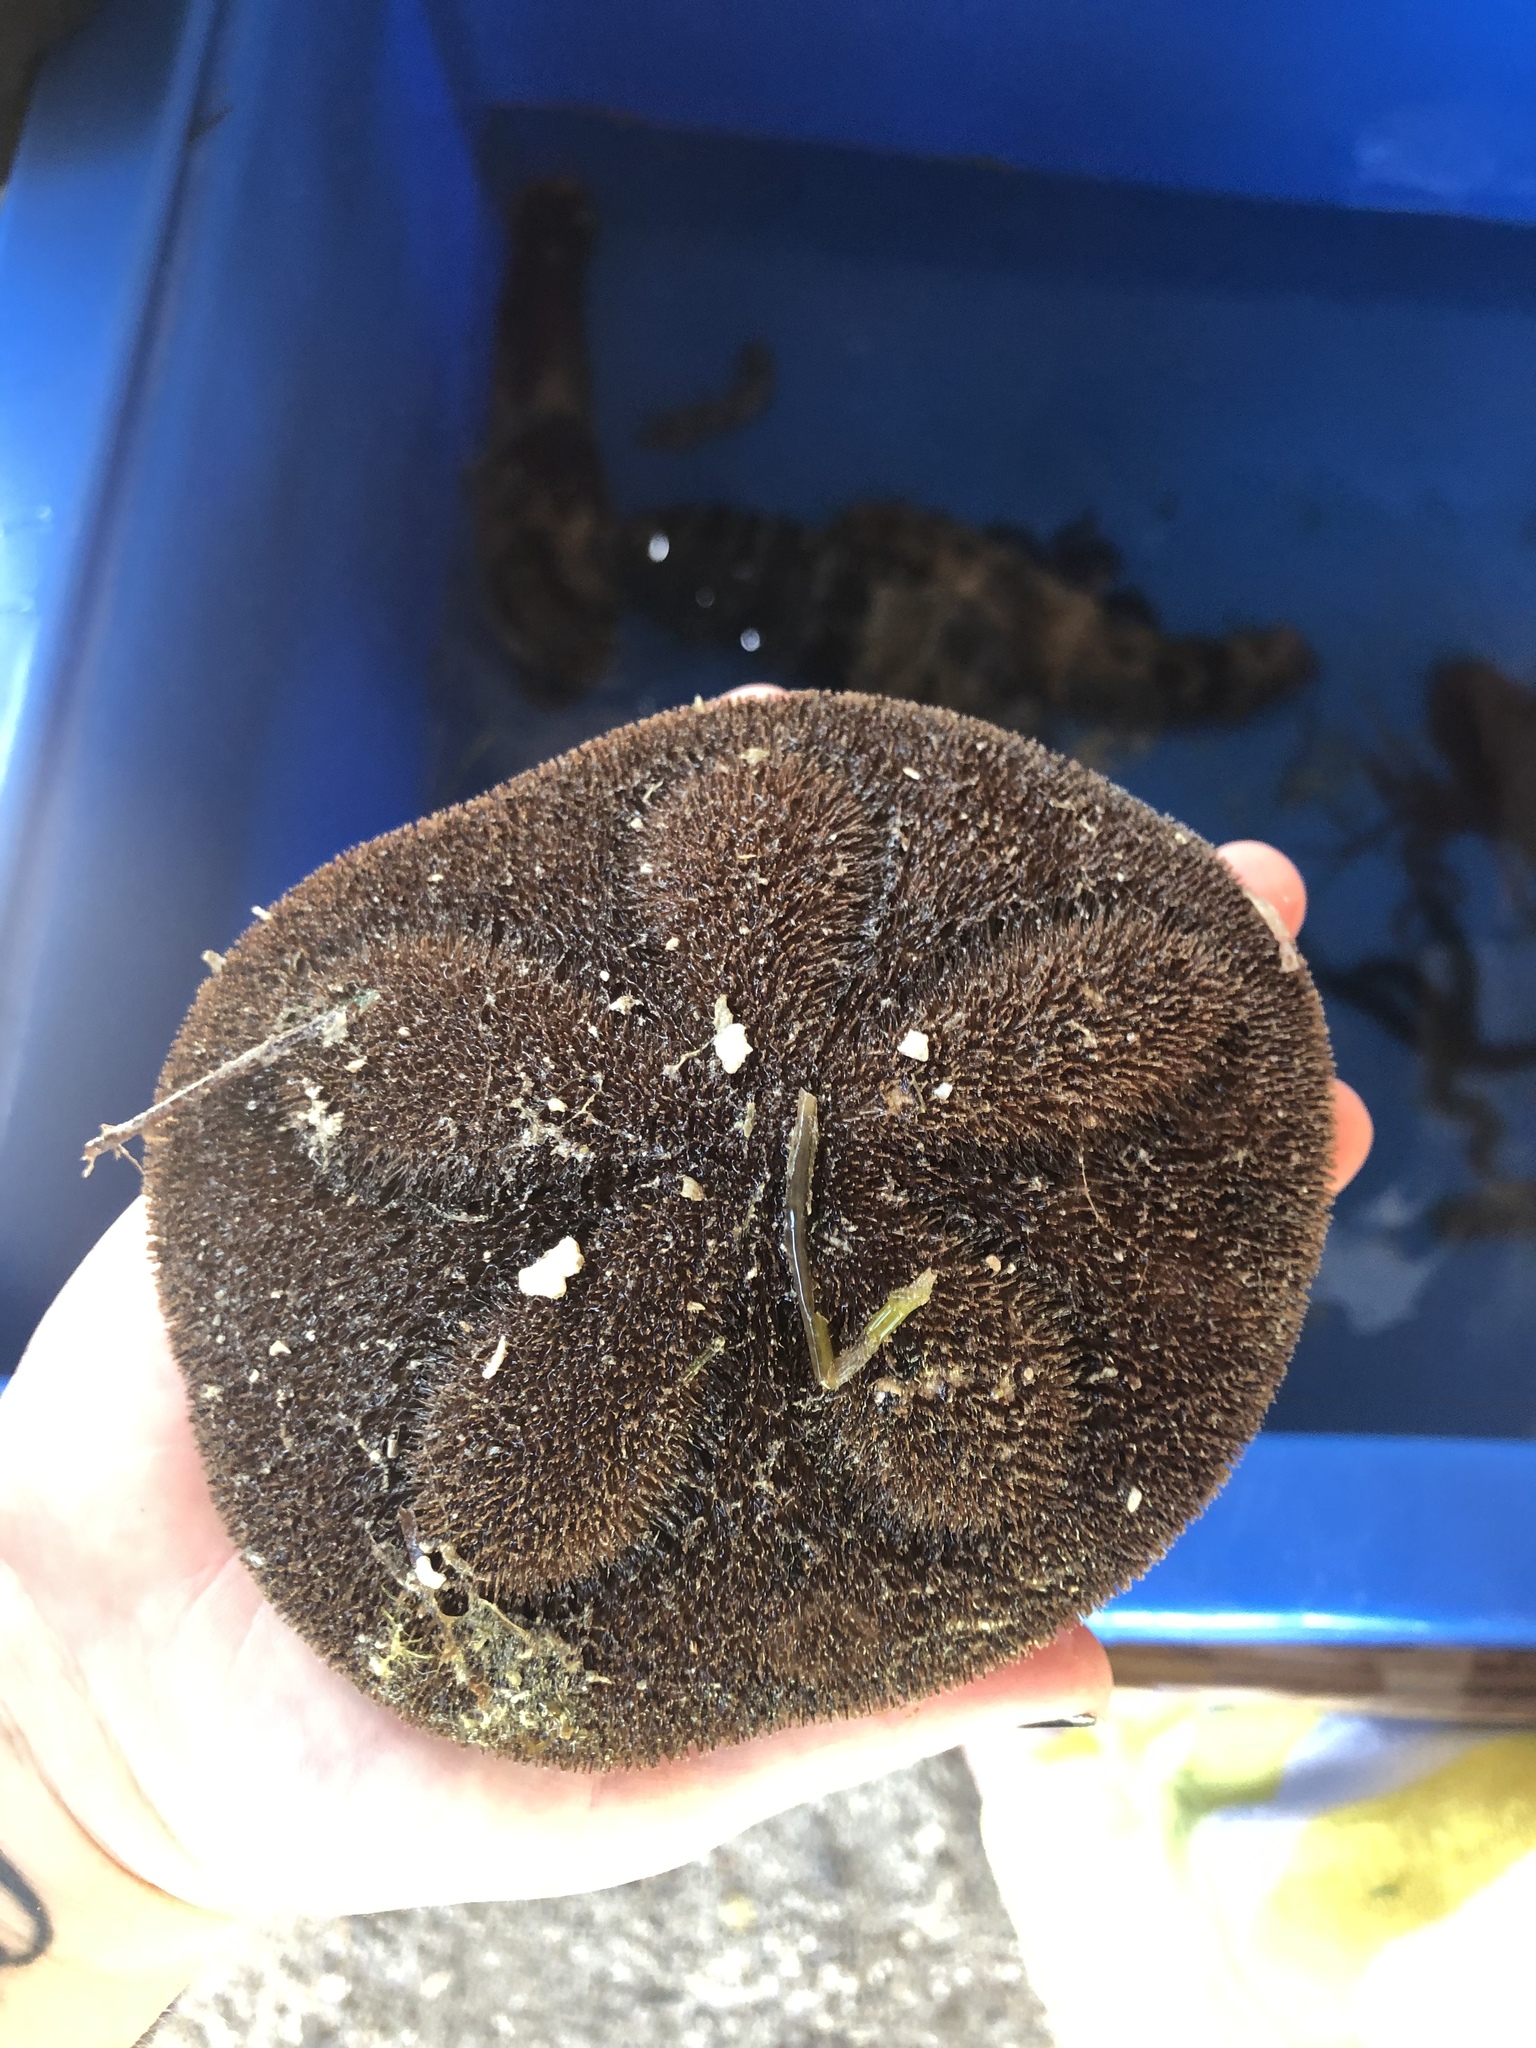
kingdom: Animalia
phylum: Echinodermata
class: Echinoidea
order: Clypeasteroida
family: Clypeasteridae
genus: Clypeaster
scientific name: Clypeaster rosaceus
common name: Sea biscuit
